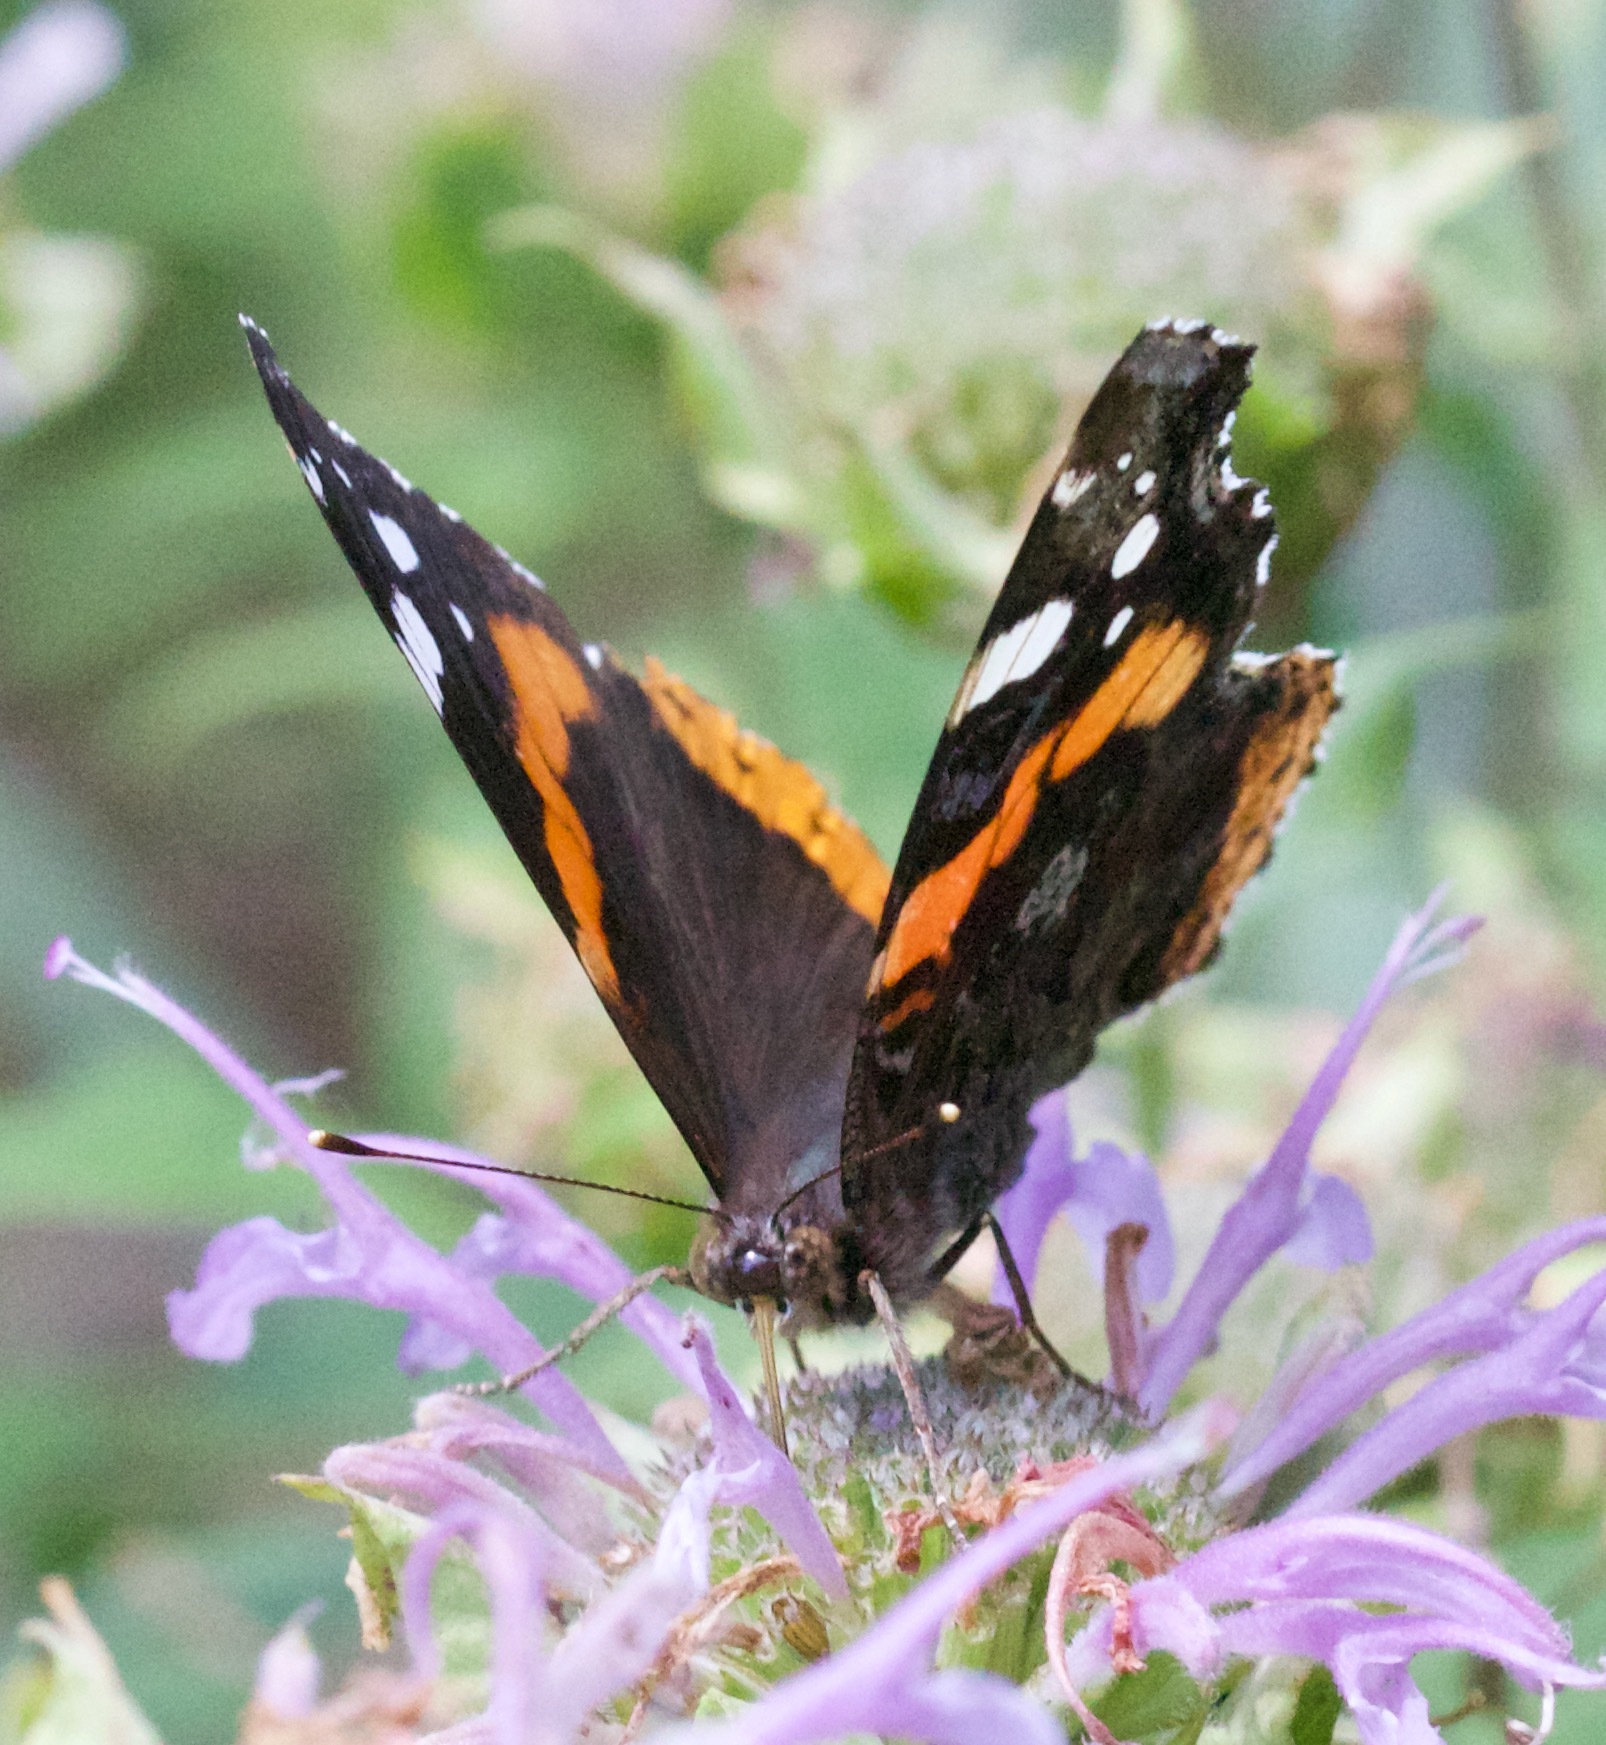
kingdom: Animalia
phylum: Arthropoda
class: Insecta
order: Lepidoptera
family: Nymphalidae
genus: Vanessa
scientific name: Vanessa atalanta
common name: Red admiral
